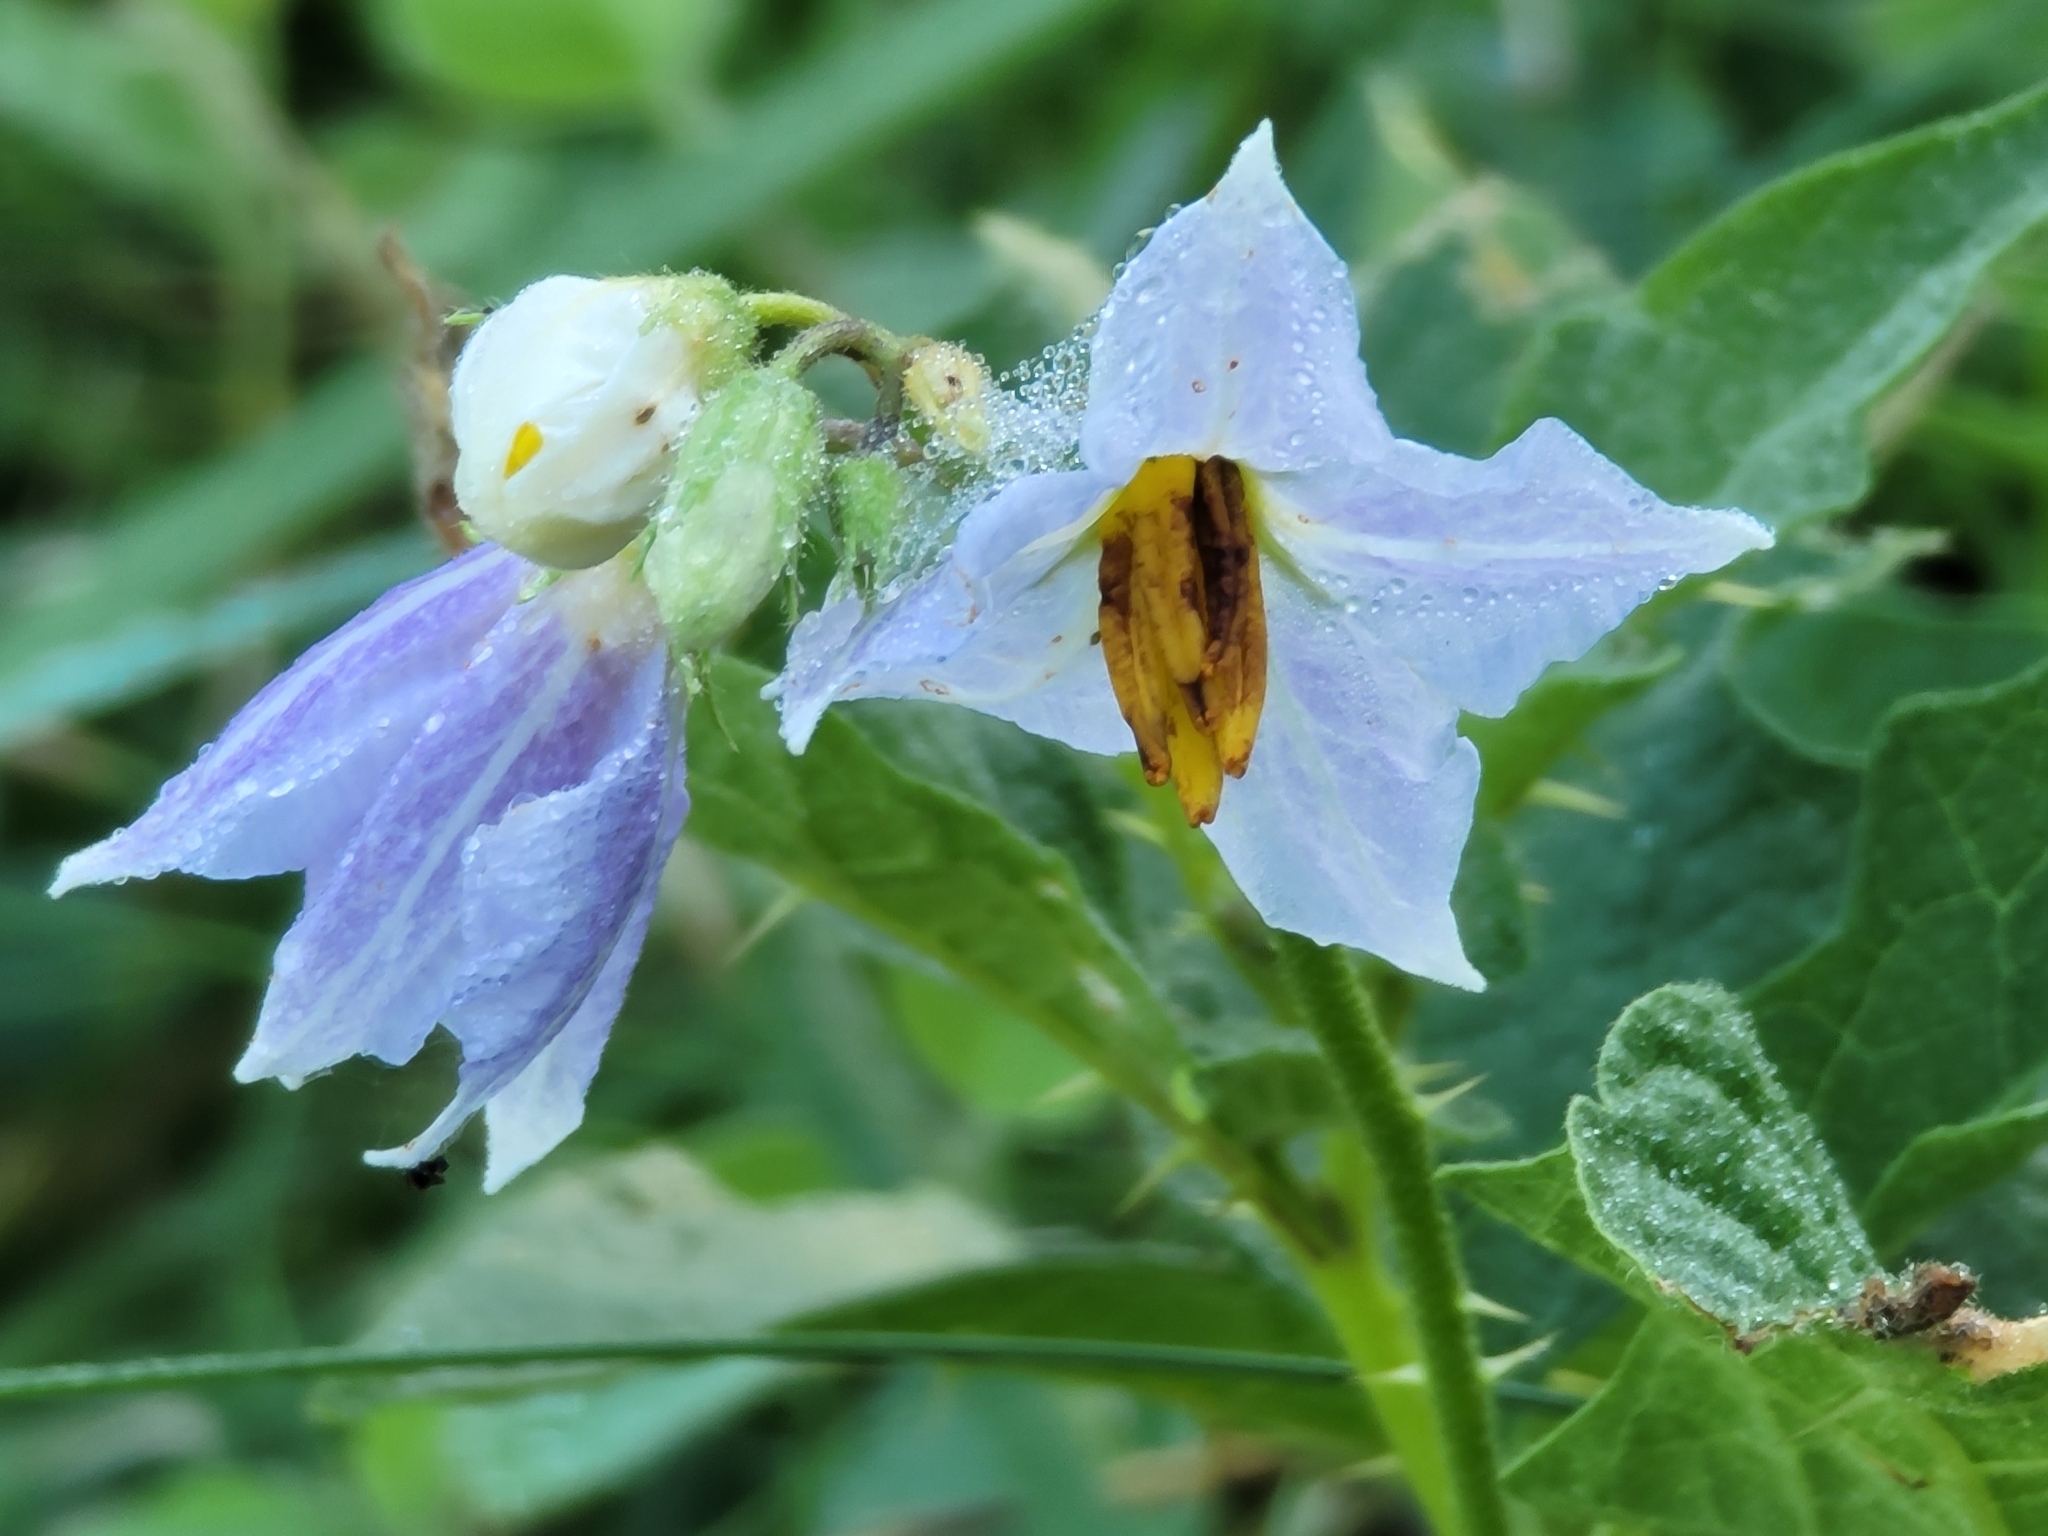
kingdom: Plantae
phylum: Tracheophyta
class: Magnoliopsida
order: Solanales
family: Solanaceae
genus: Solanum
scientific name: Solanum carolinense
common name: Horse-nettle
